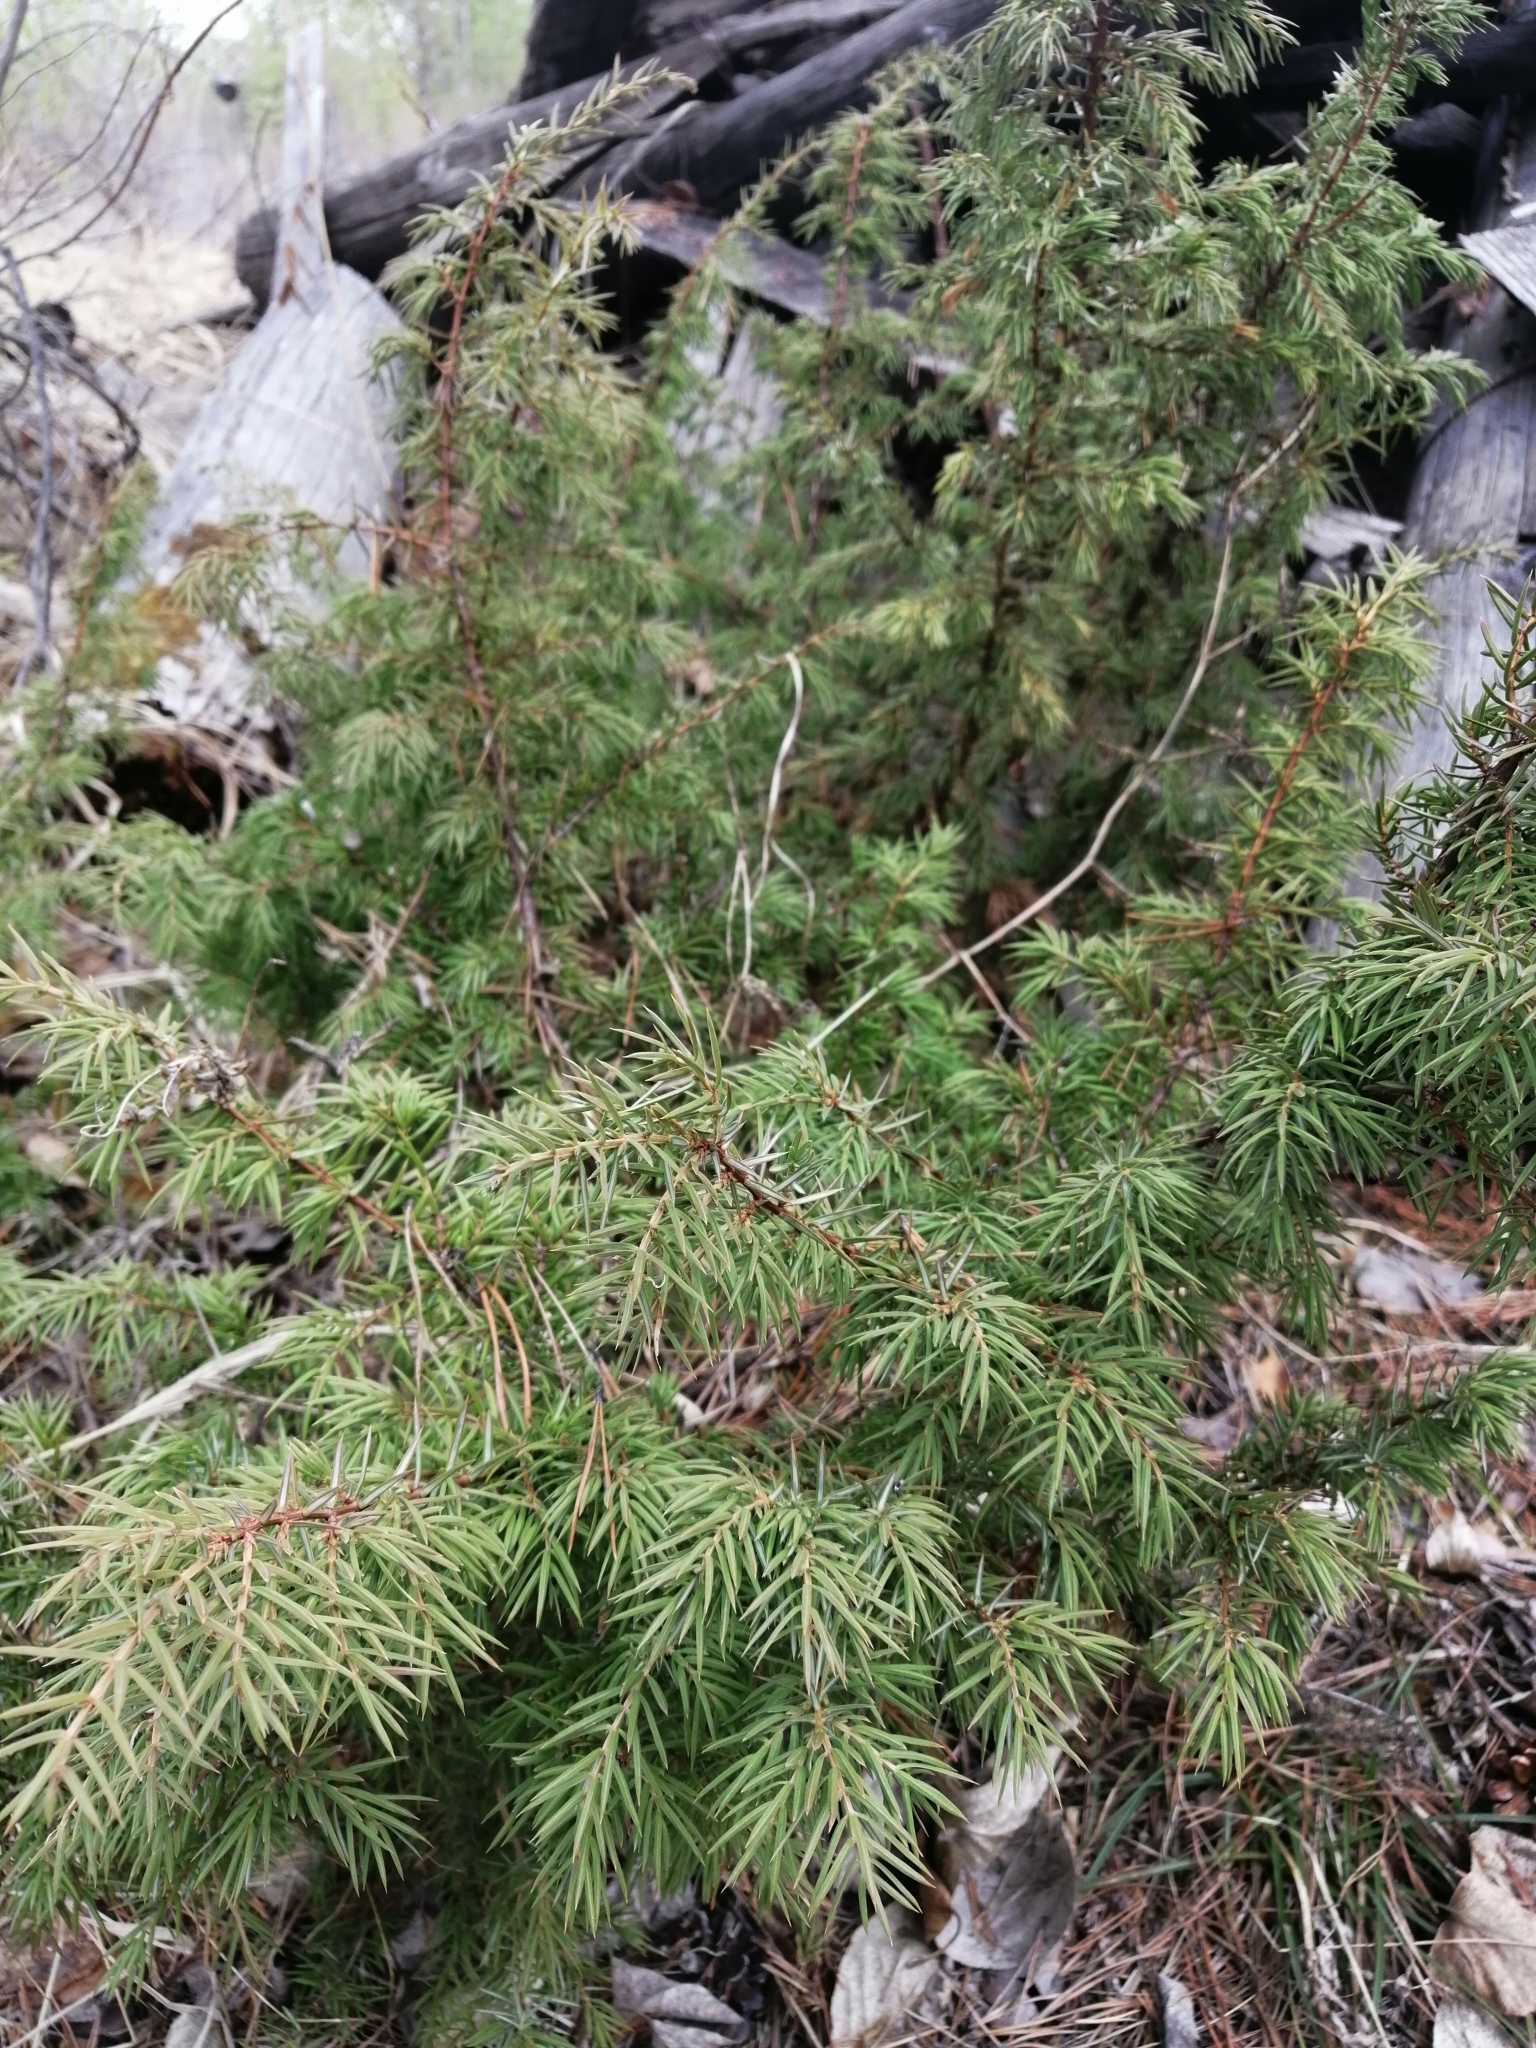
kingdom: Plantae
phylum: Tracheophyta
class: Pinopsida
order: Pinales
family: Cupressaceae
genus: Juniperus
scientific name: Juniperus communis
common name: Common juniper
